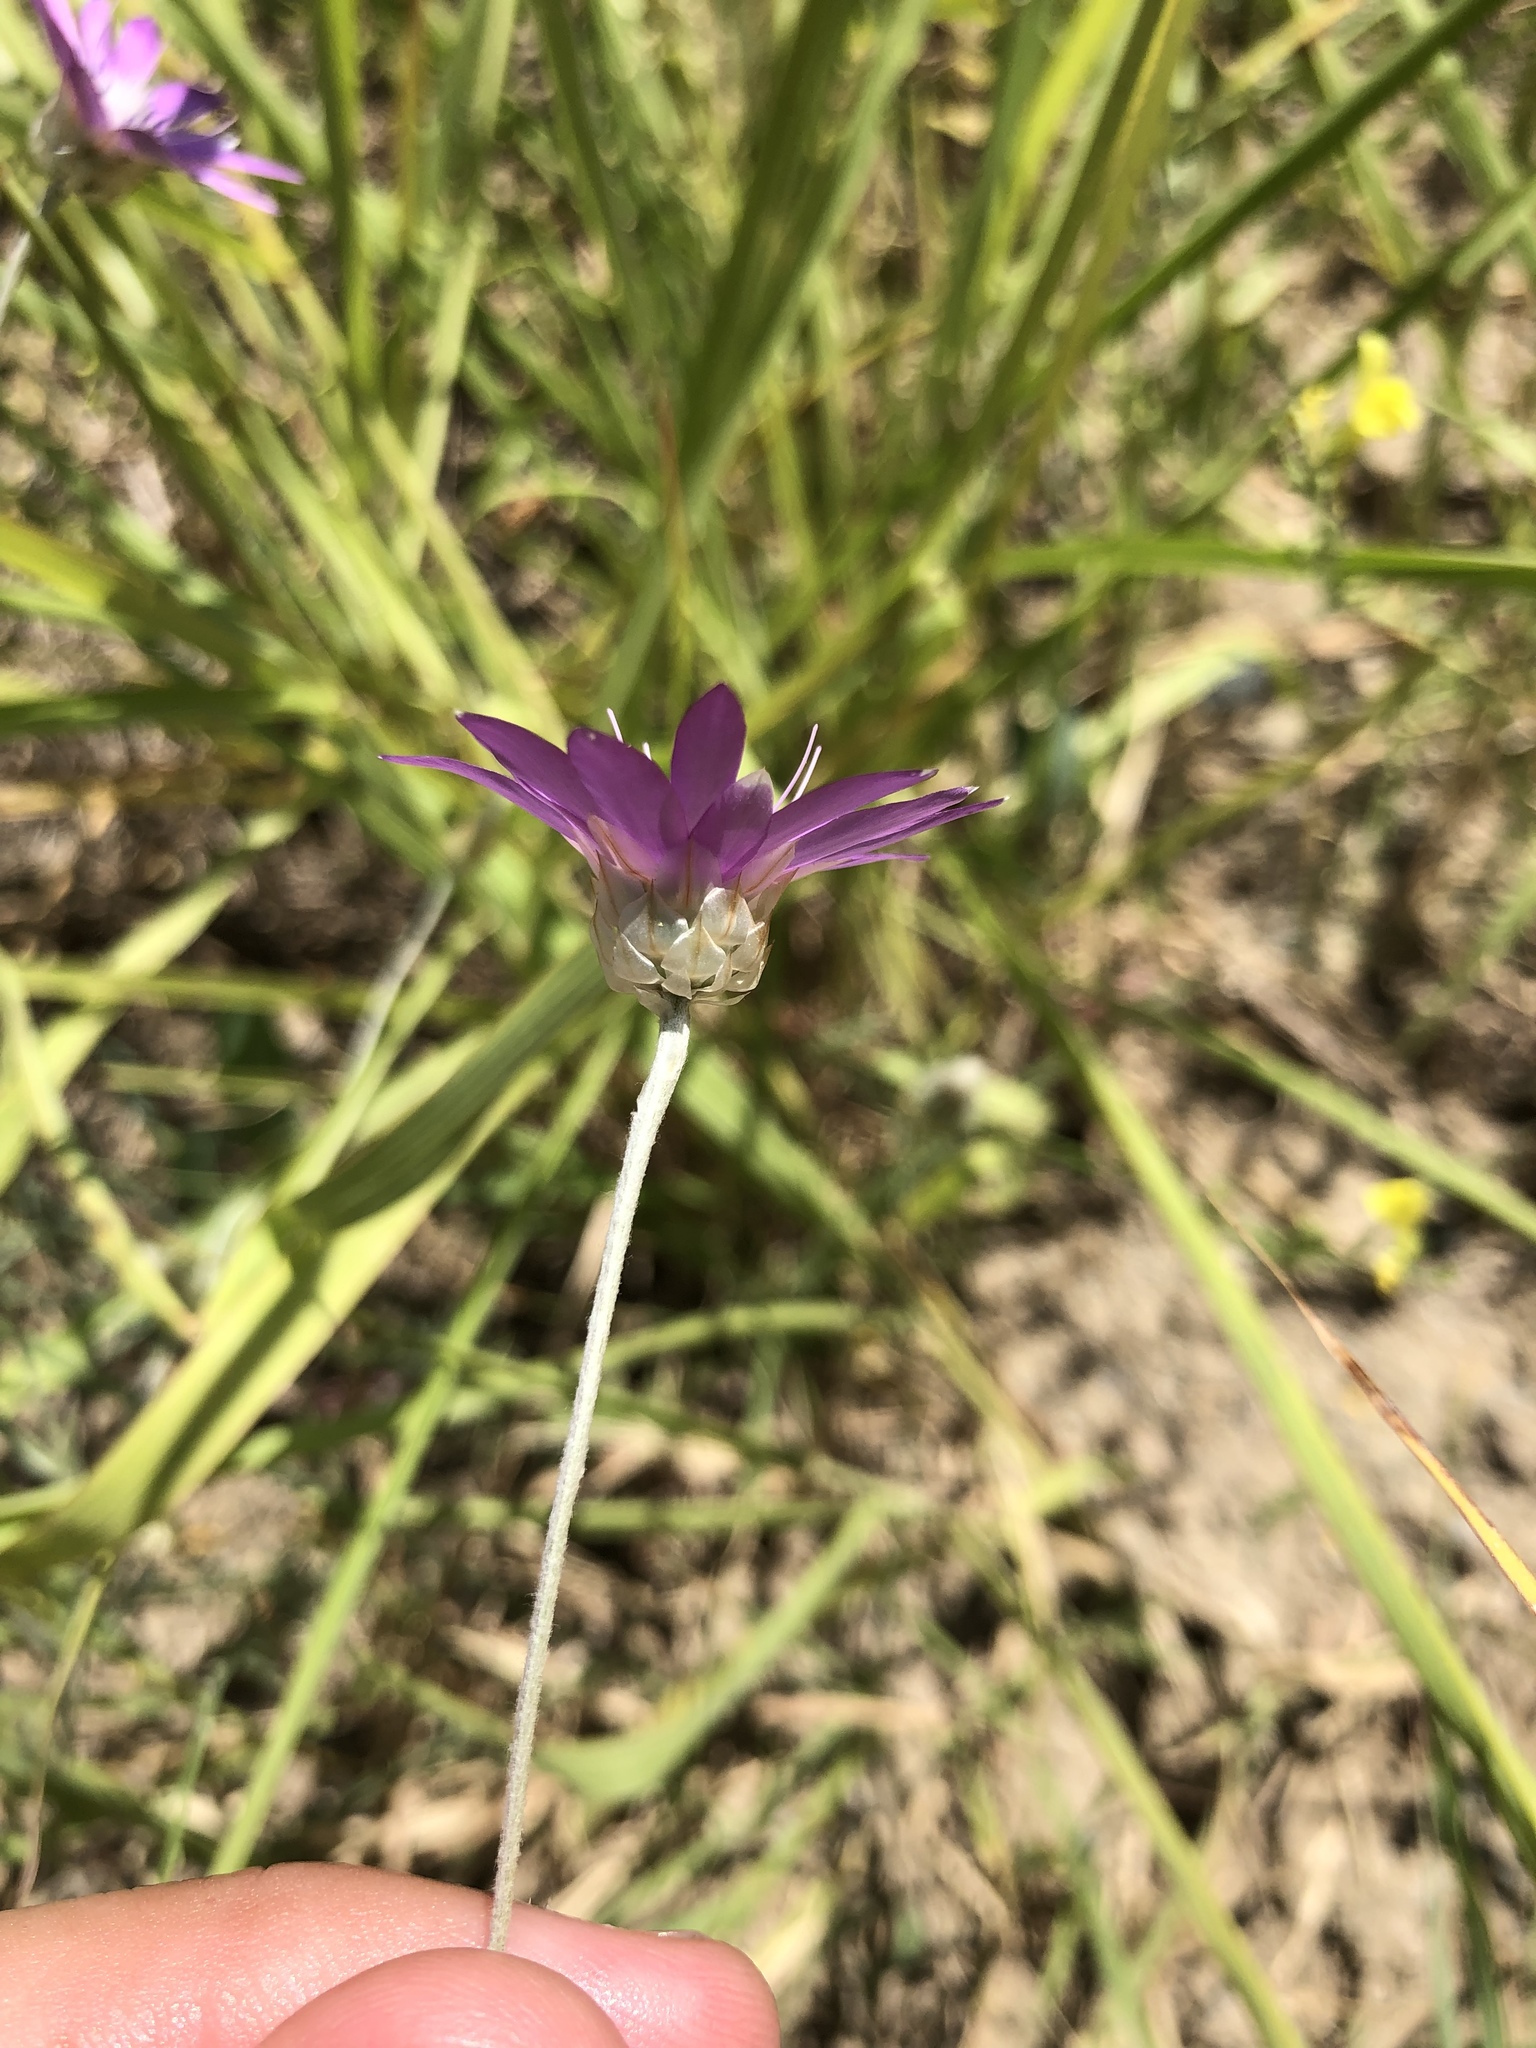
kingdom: Plantae
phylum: Tracheophyta
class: Magnoliopsida
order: Asterales
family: Asteraceae
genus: Xeranthemum
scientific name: Xeranthemum annuum
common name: Immortelle
